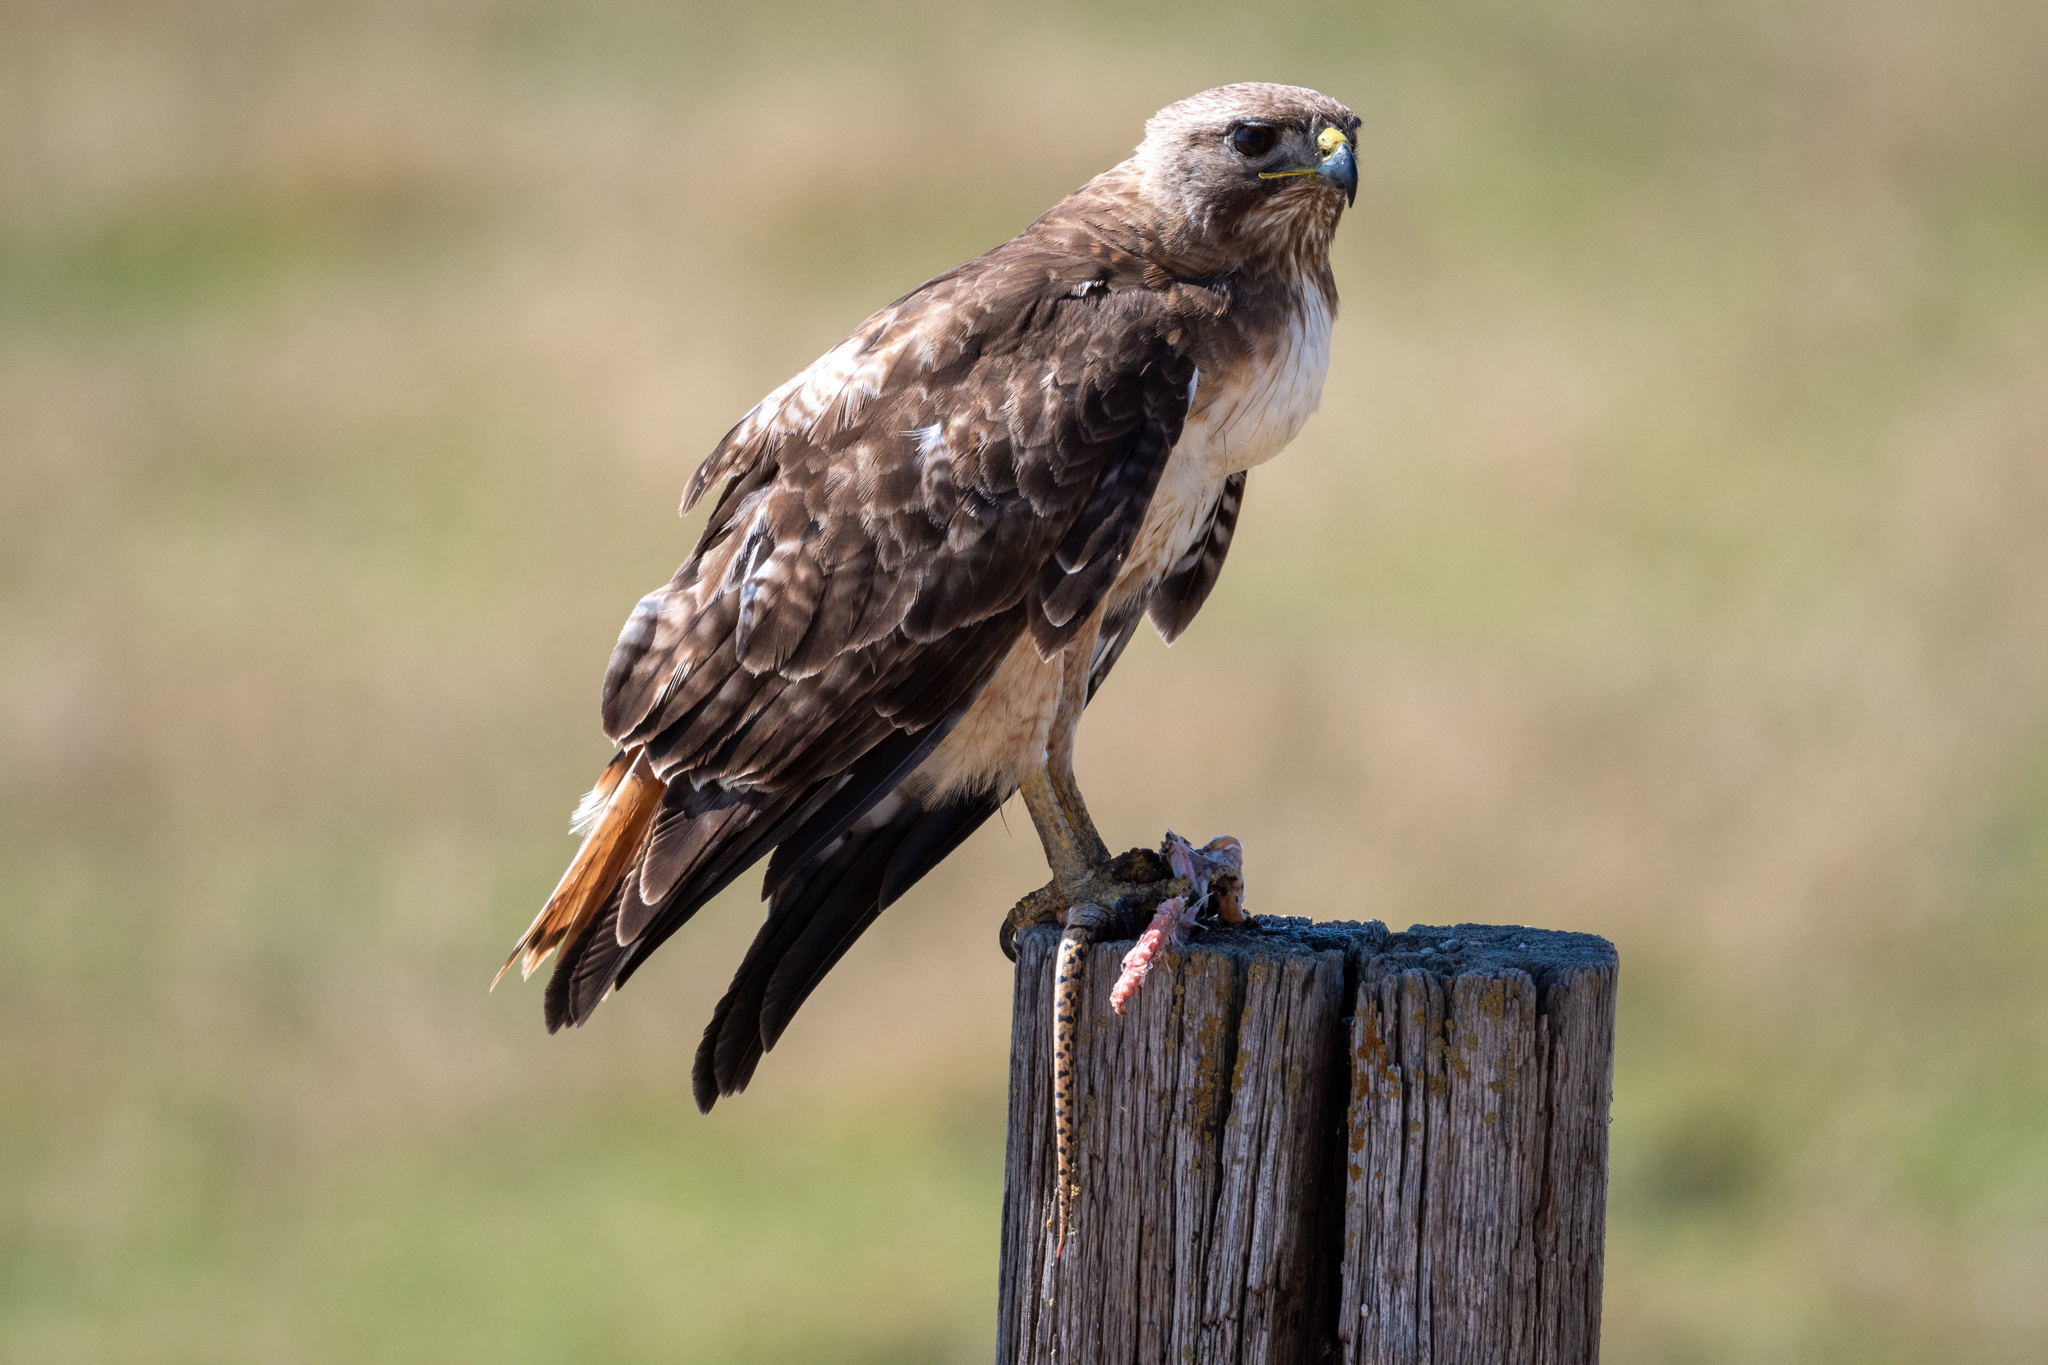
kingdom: Animalia
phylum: Chordata
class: Aves
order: Accipitriformes
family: Accipitridae
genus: Buteo
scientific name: Buteo jamaicensis
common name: Red-tailed hawk
